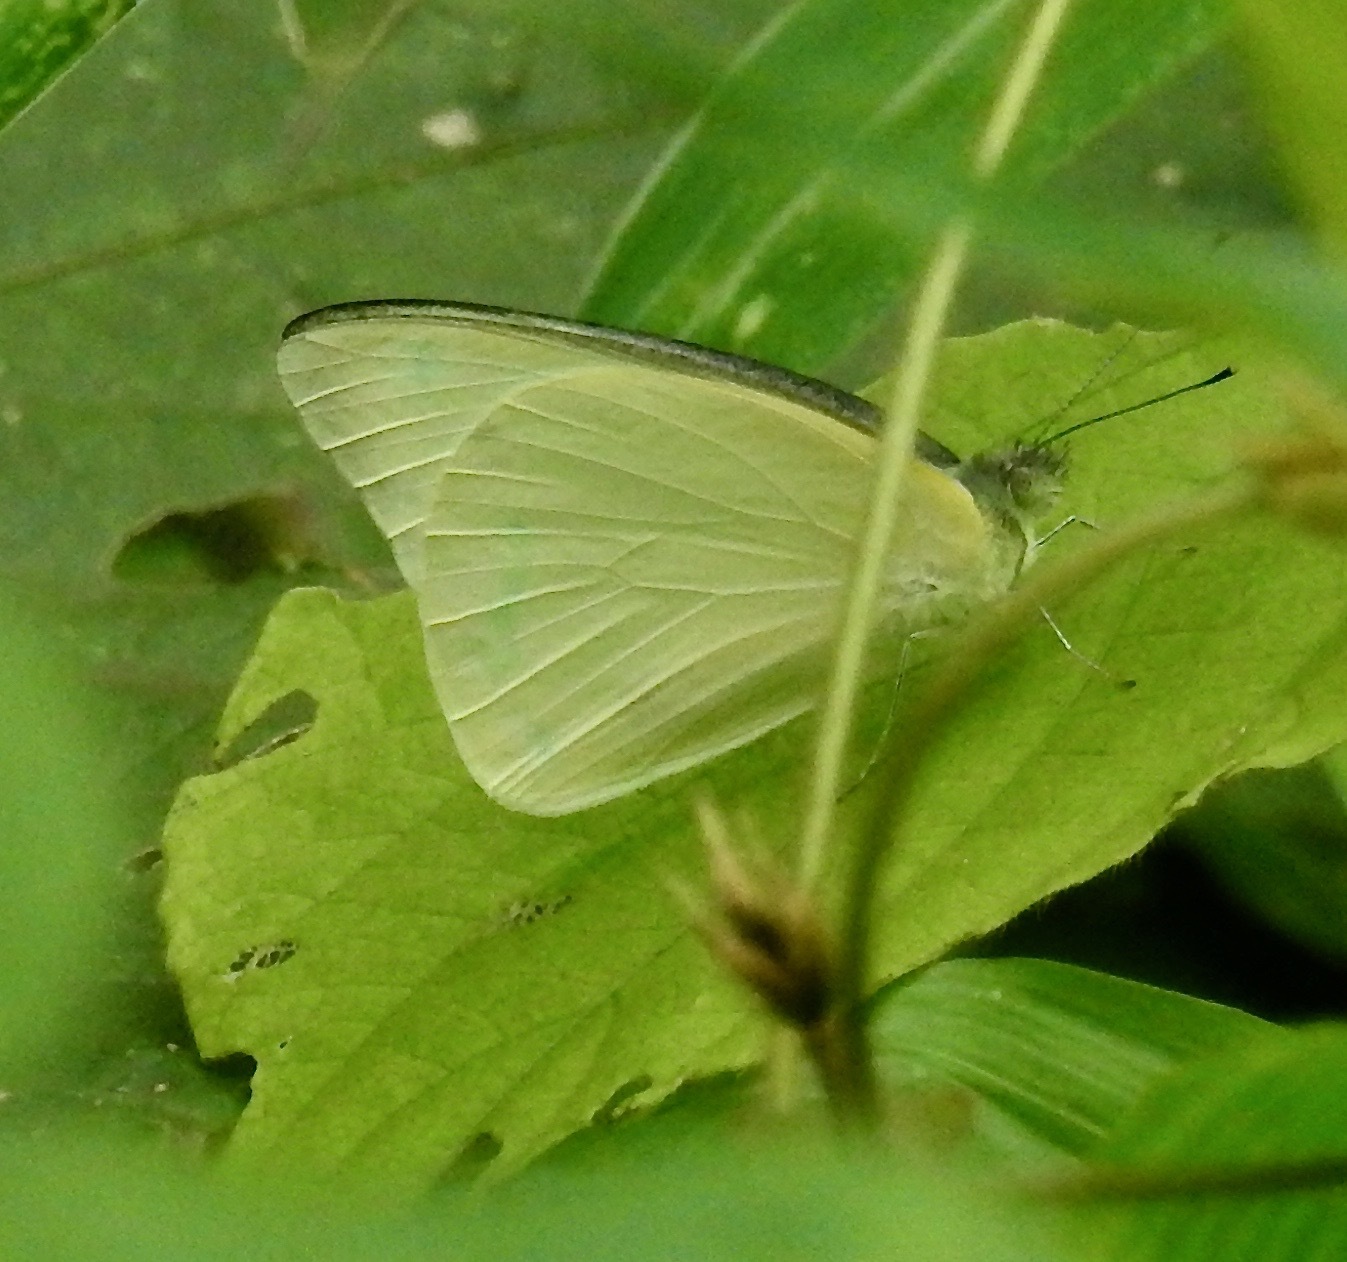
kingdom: Animalia
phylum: Arthropoda
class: Insecta
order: Lepidoptera
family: Pieridae
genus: Catopsilia
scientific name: Catopsilia pomona
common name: Common emigrant
